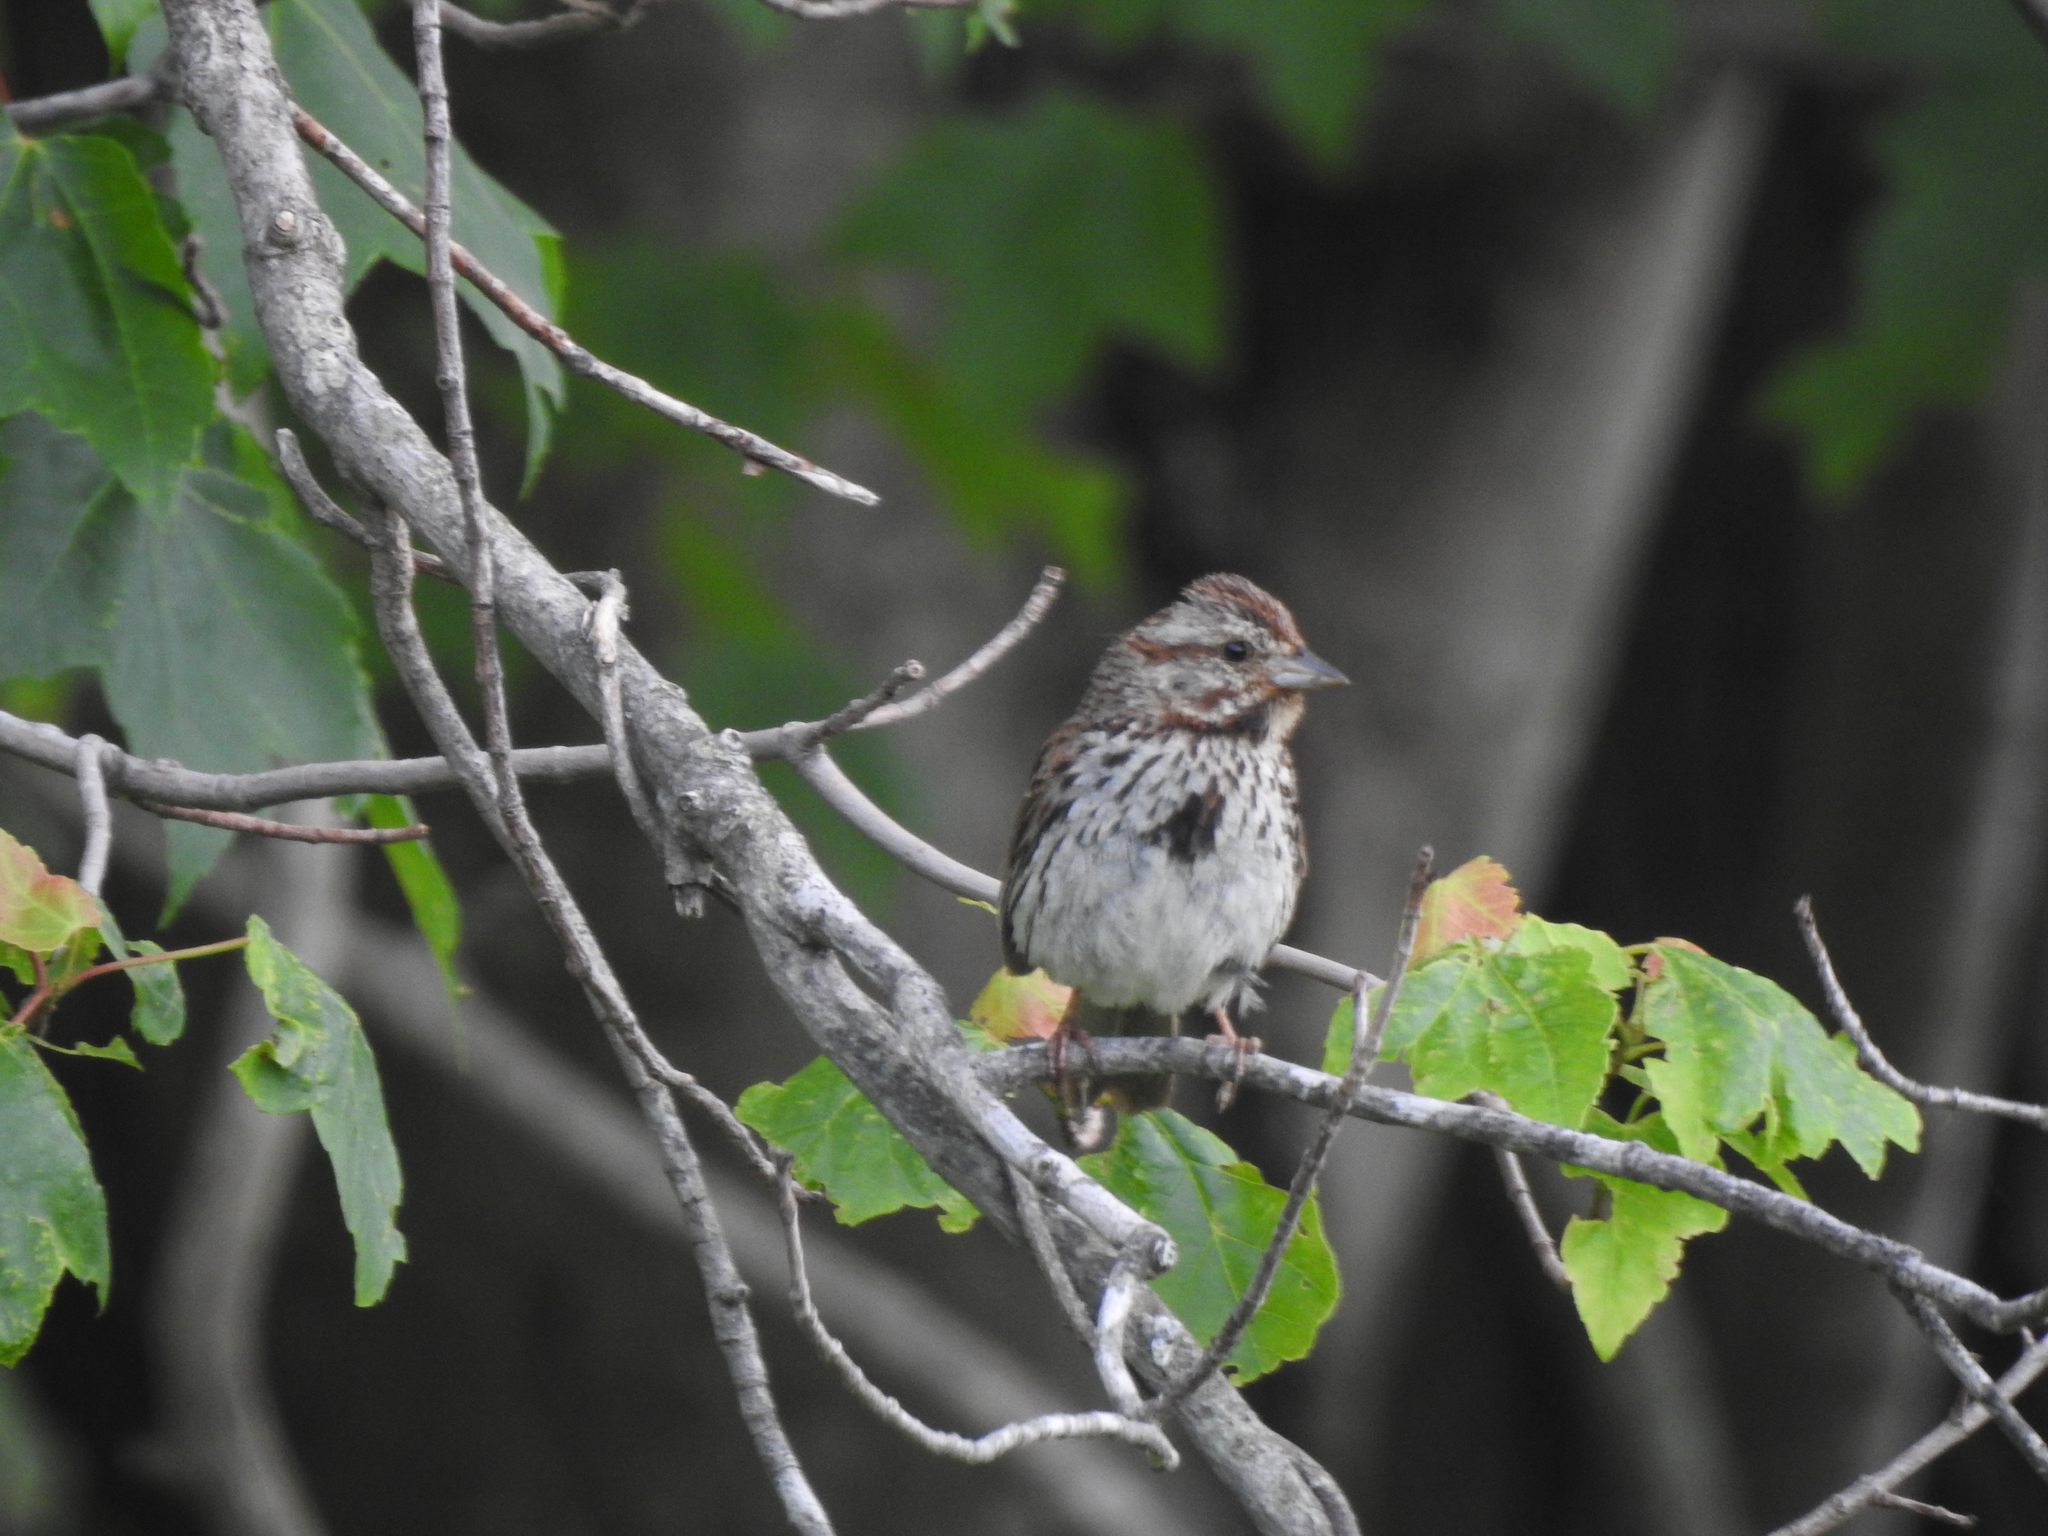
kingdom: Animalia
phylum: Chordata
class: Aves
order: Passeriformes
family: Passerellidae
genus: Melospiza
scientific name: Melospiza melodia
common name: Song sparrow
